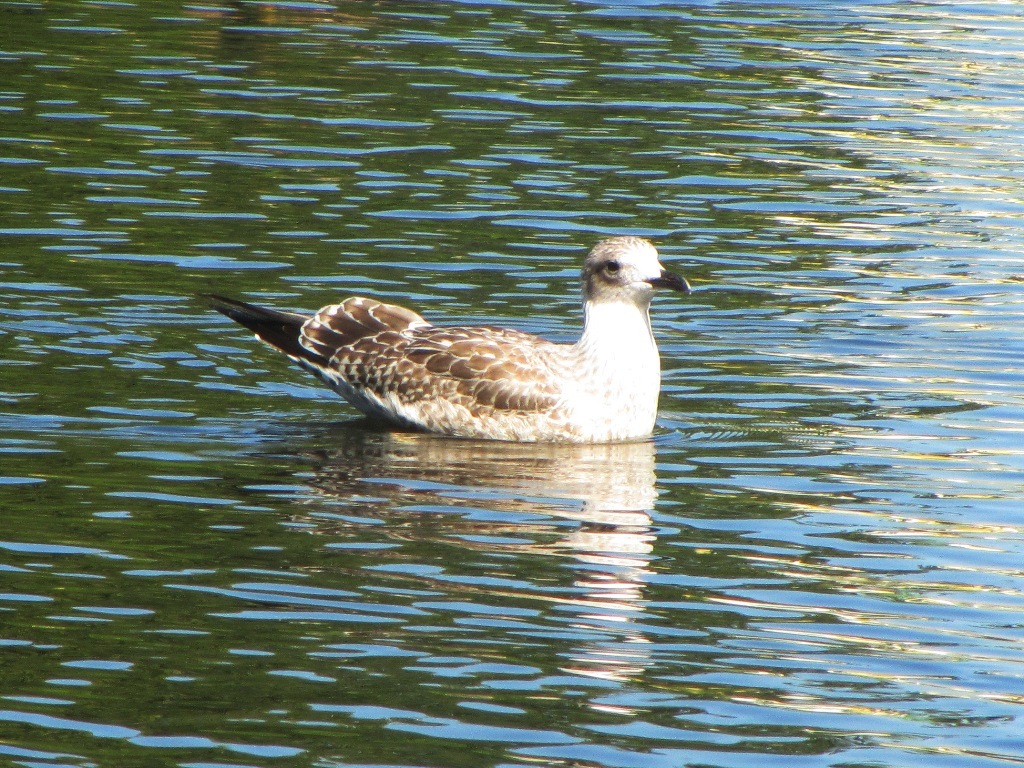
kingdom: Animalia
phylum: Chordata
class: Aves
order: Charadriiformes
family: Laridae
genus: Larus
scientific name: Larus fuscus
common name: Lesser black-backed gull
